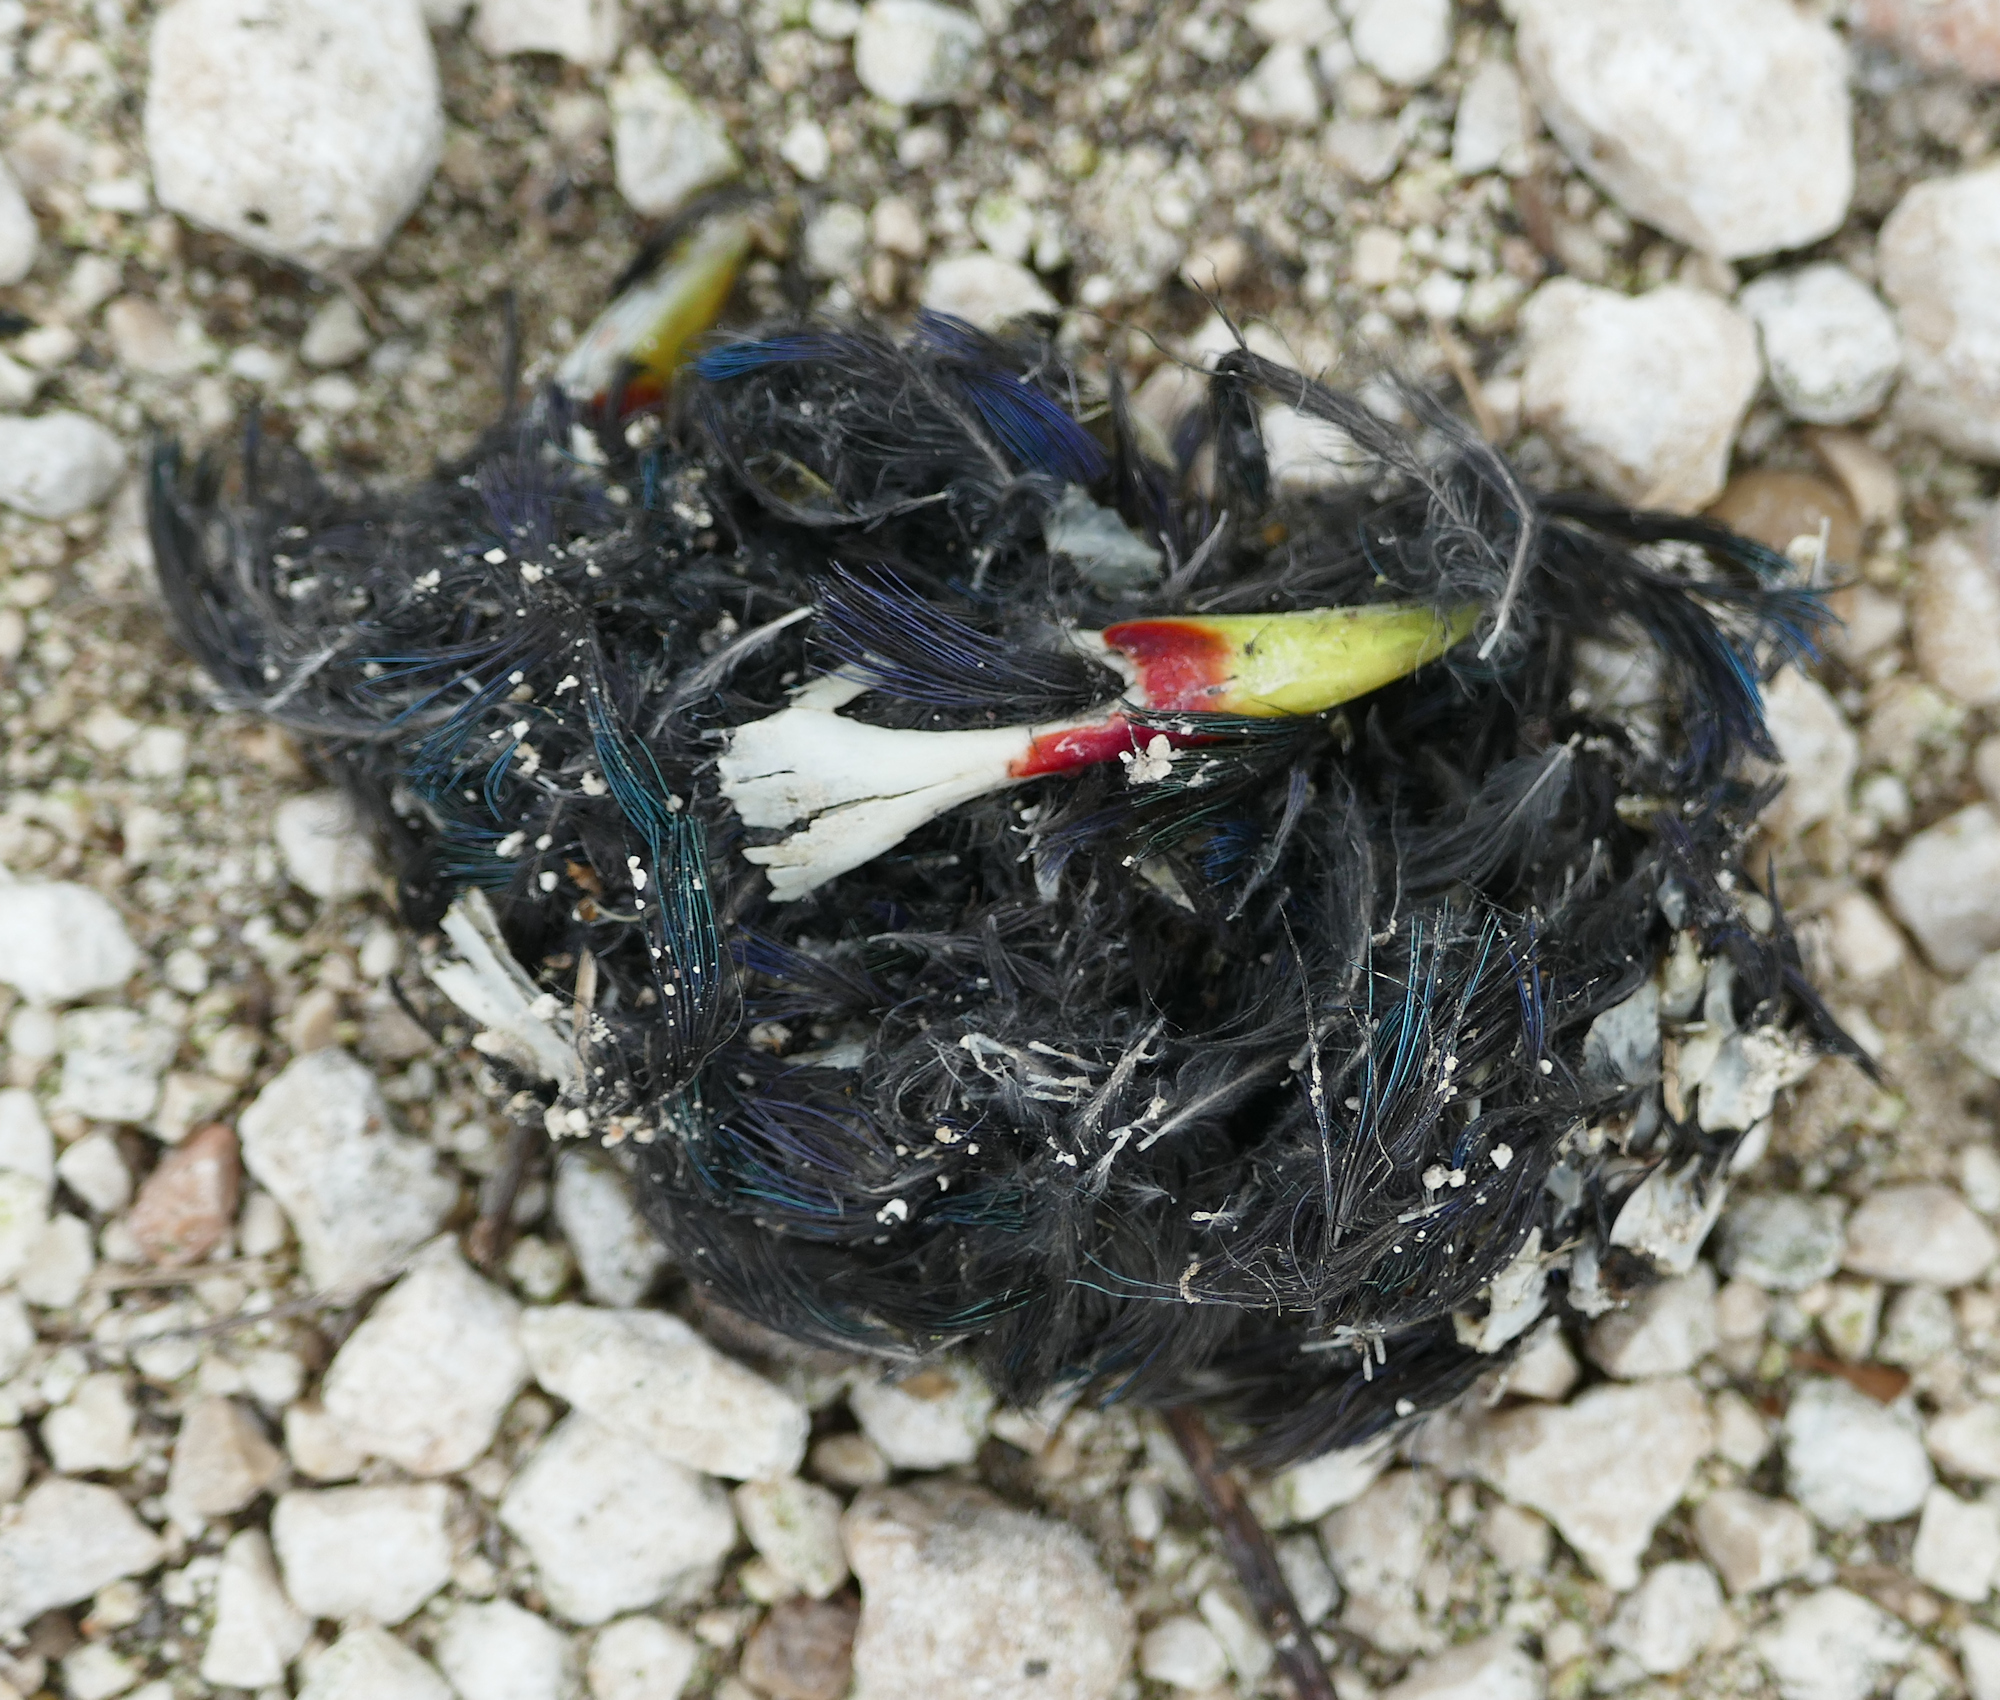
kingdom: Animalia
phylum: Chordata
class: Aves
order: Gruiformes
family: Rallidae
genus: Porphyrio
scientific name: Porphyrio martinica
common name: Purple gallinule
